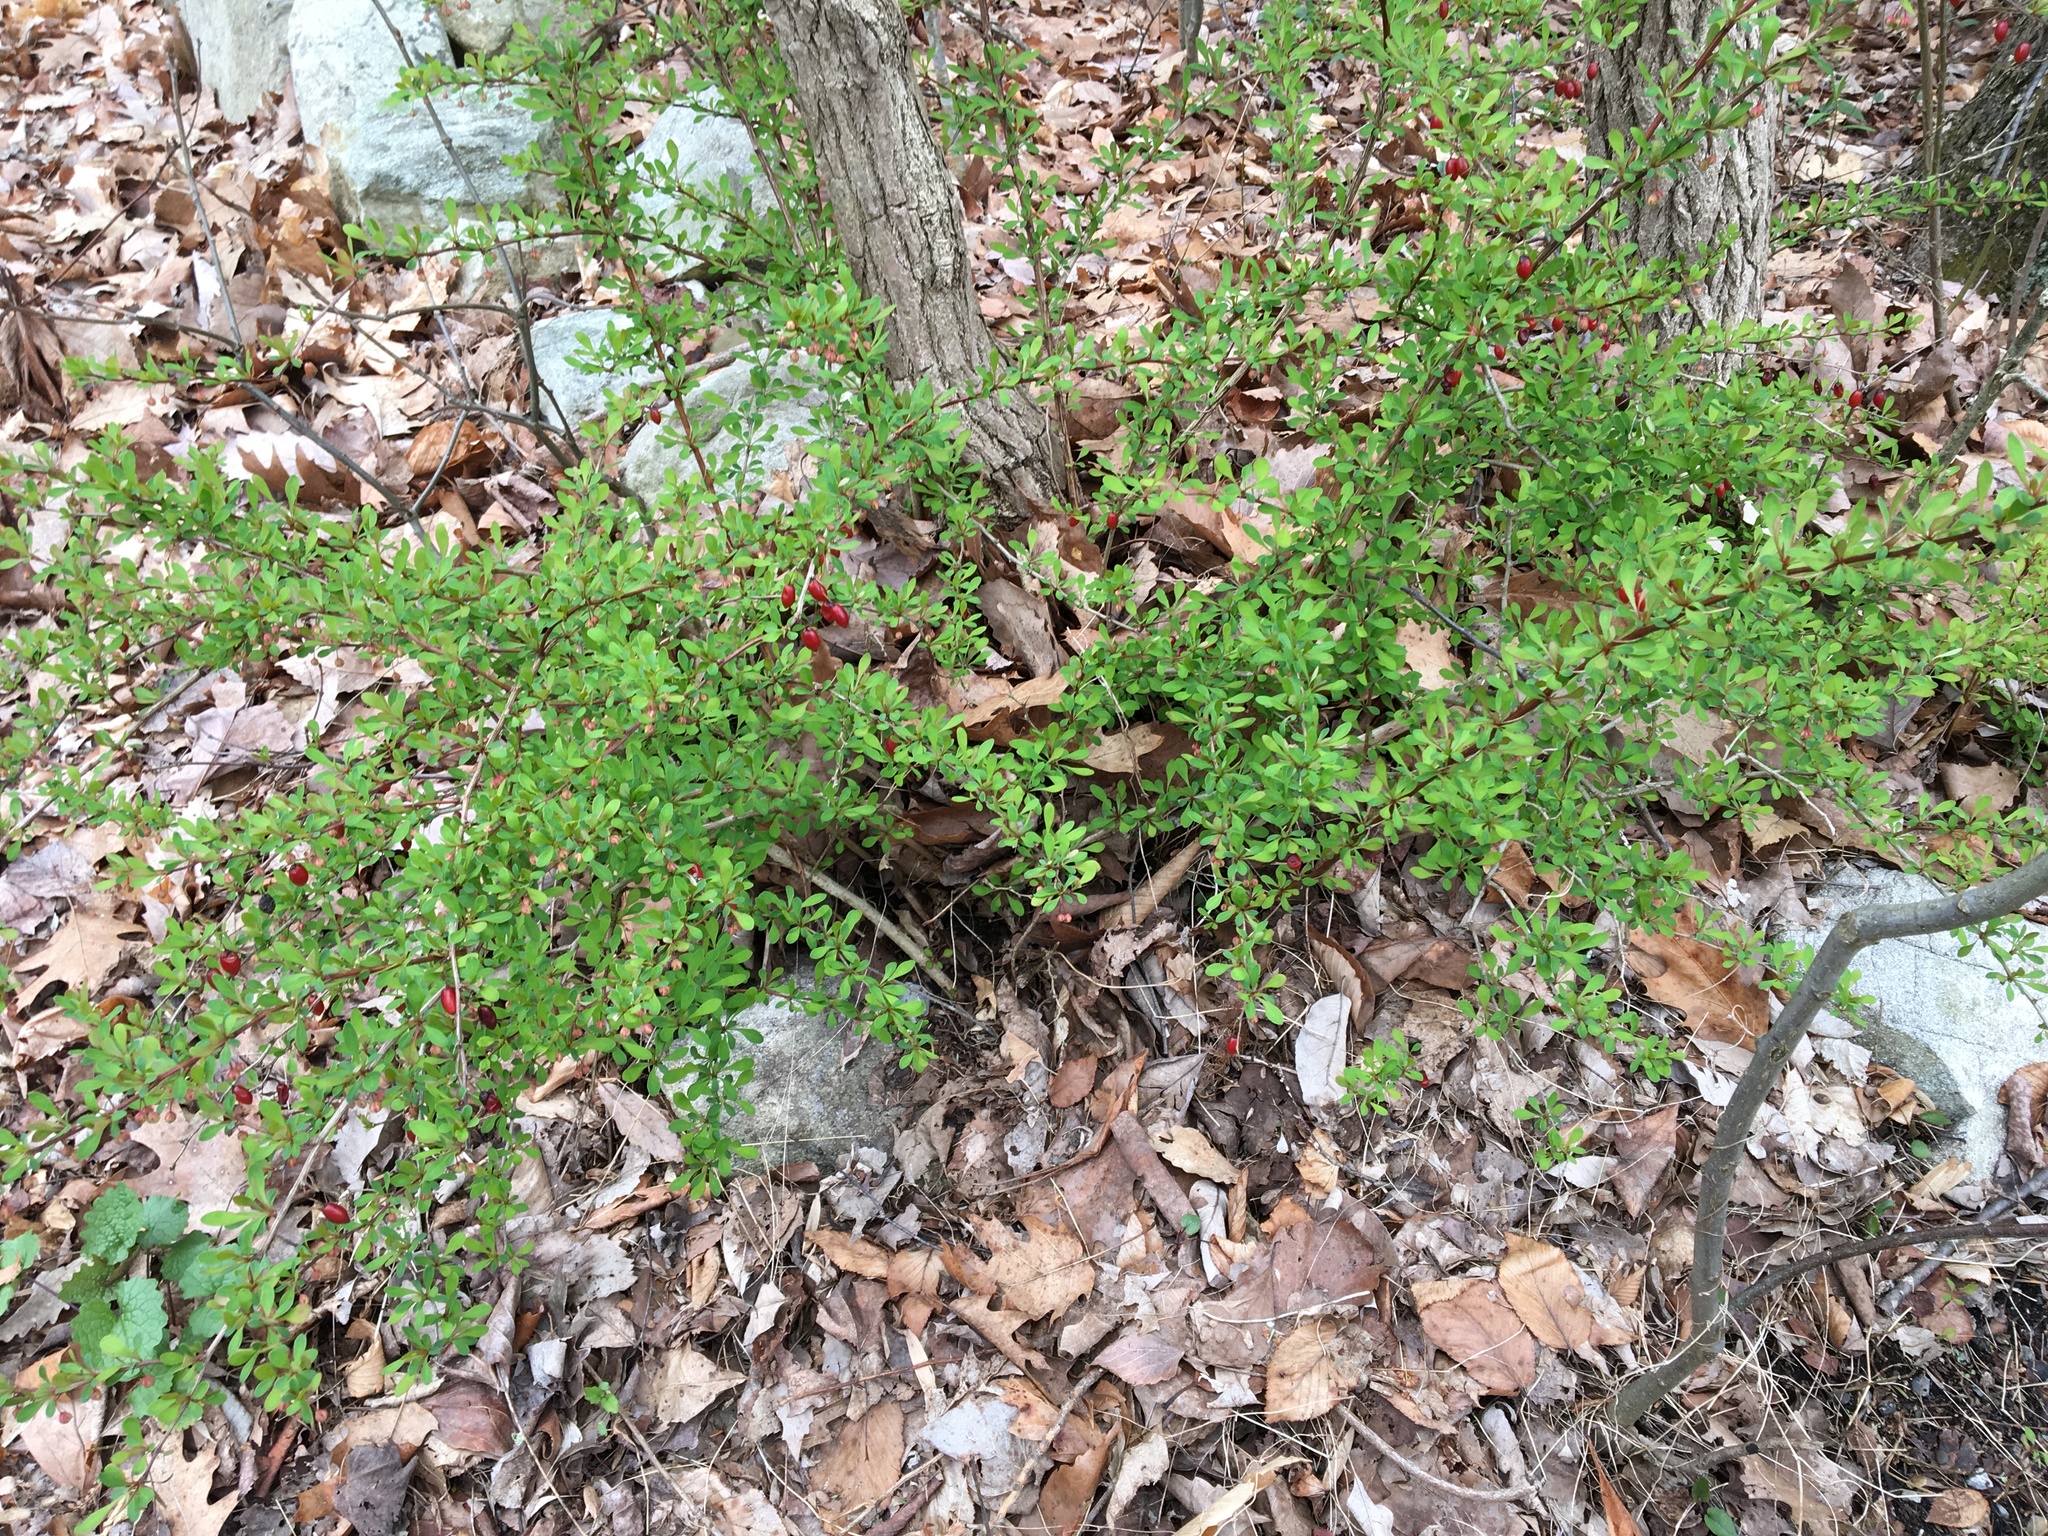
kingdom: Plantae
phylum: Tracheophyta
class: Magnoliopsida
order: Ranunculales
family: Berberidaceae
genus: Berberis
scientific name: Berberis thunbergii
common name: Japanese barberry
